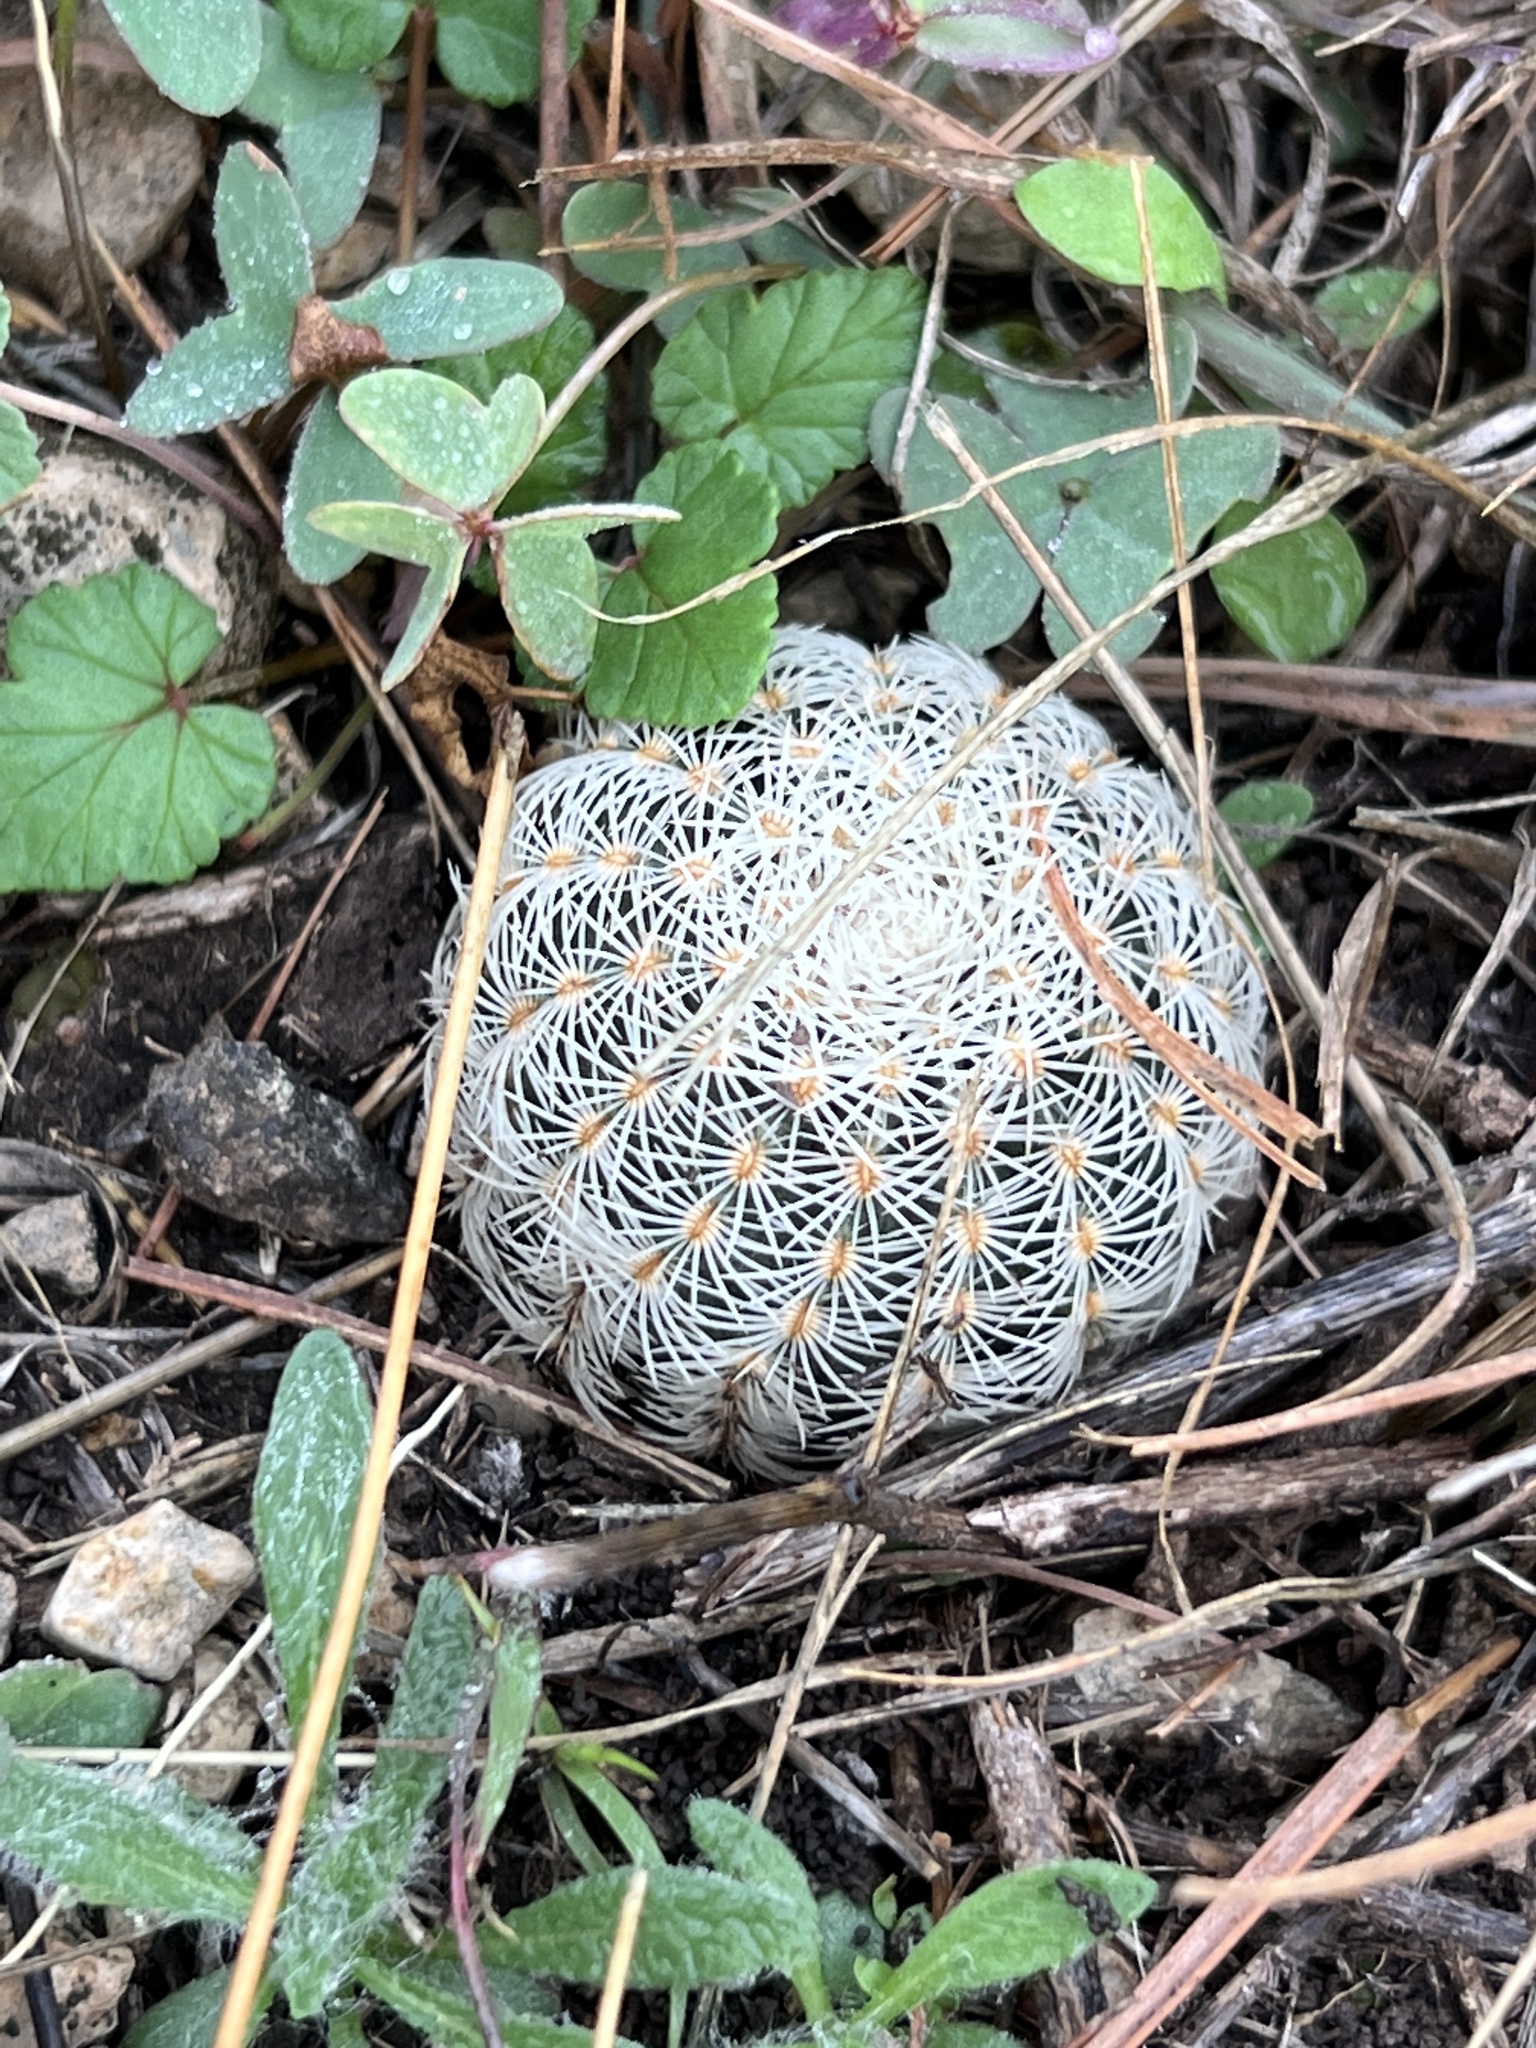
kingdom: Plantae
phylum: Tracheophyta
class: Magnoliopsida
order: Caryophyllales
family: Cactaceae
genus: Echinocereus
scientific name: Echinocereus reichenbachii
